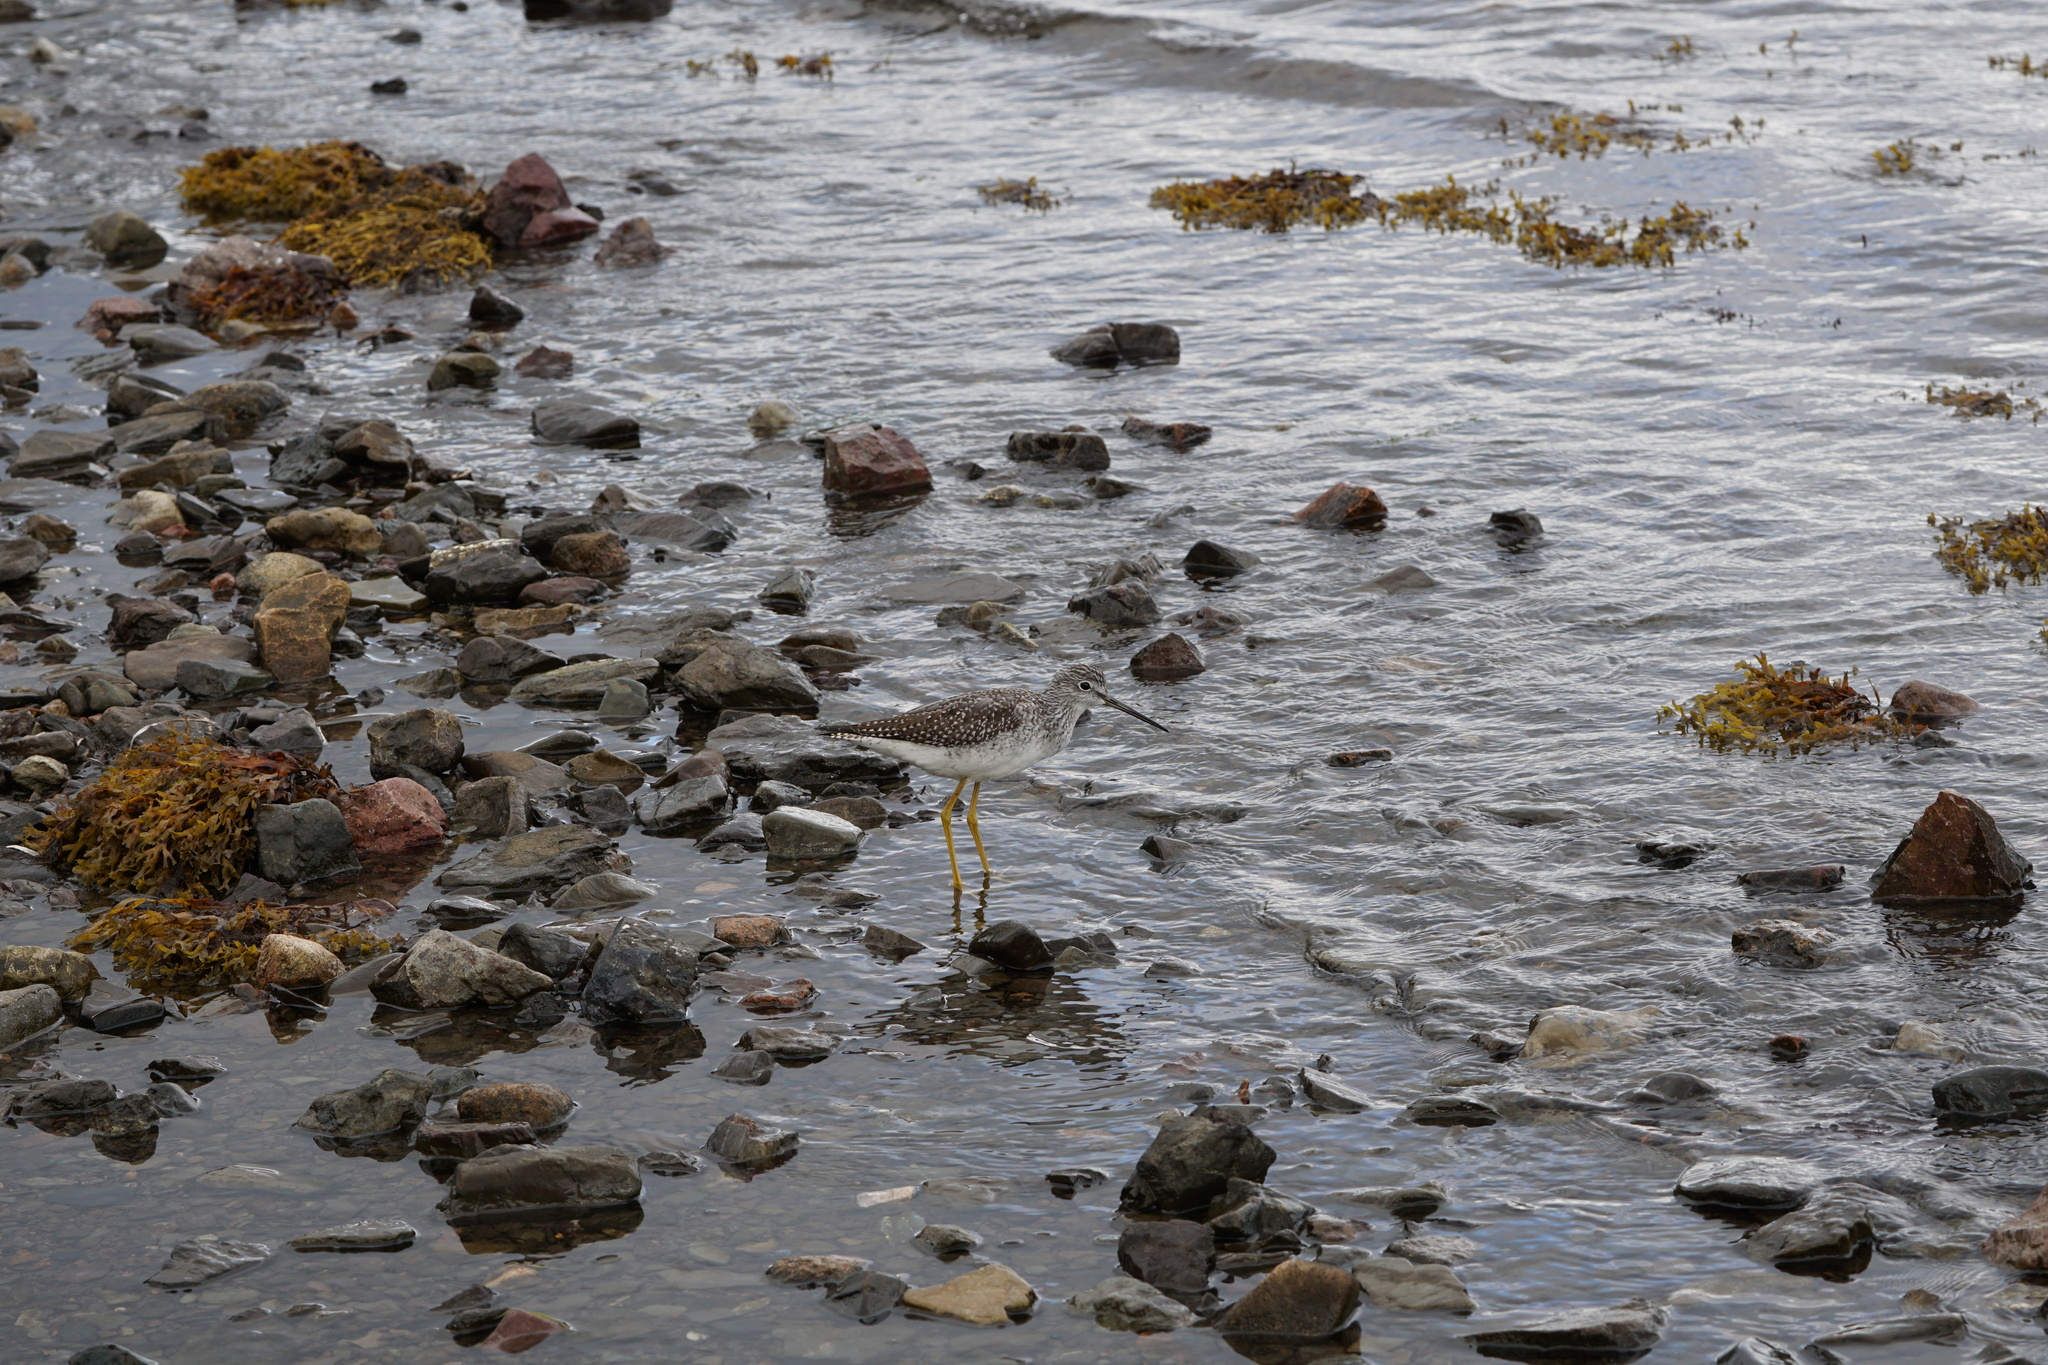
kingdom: Animalia
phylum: Chordata
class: Aves
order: Charadriiformes
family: Scolopacidae
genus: Tringa
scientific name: Tringa melanoleuca
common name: Greater yellowlegs
